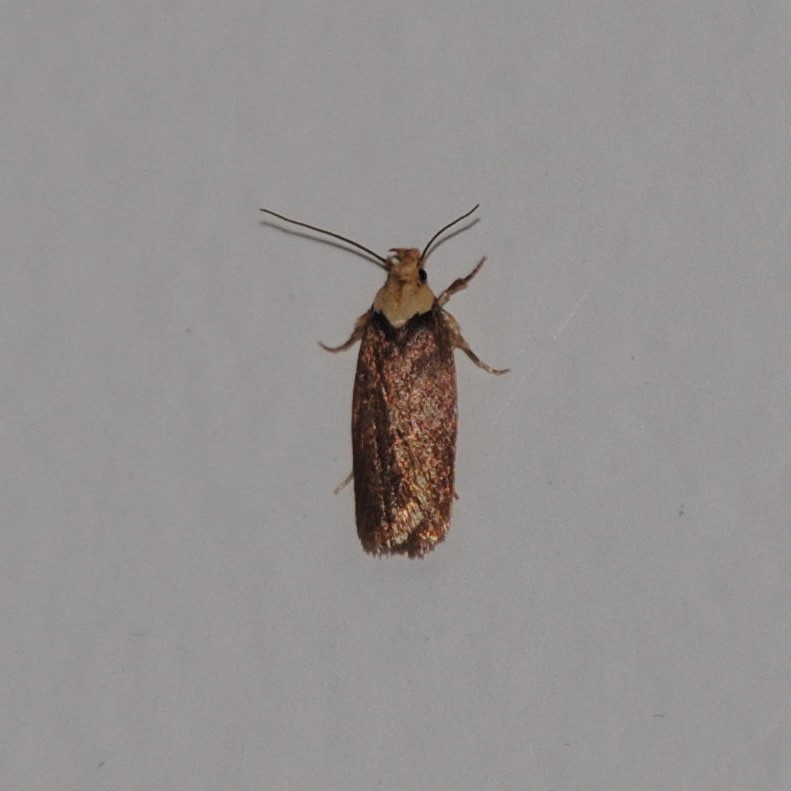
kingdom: Animalia
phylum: Arthropoda
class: Insecta
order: Lepidoptera
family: Depressariidae
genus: Depressaria
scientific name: Depressaria depressana
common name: Lost flat-body
